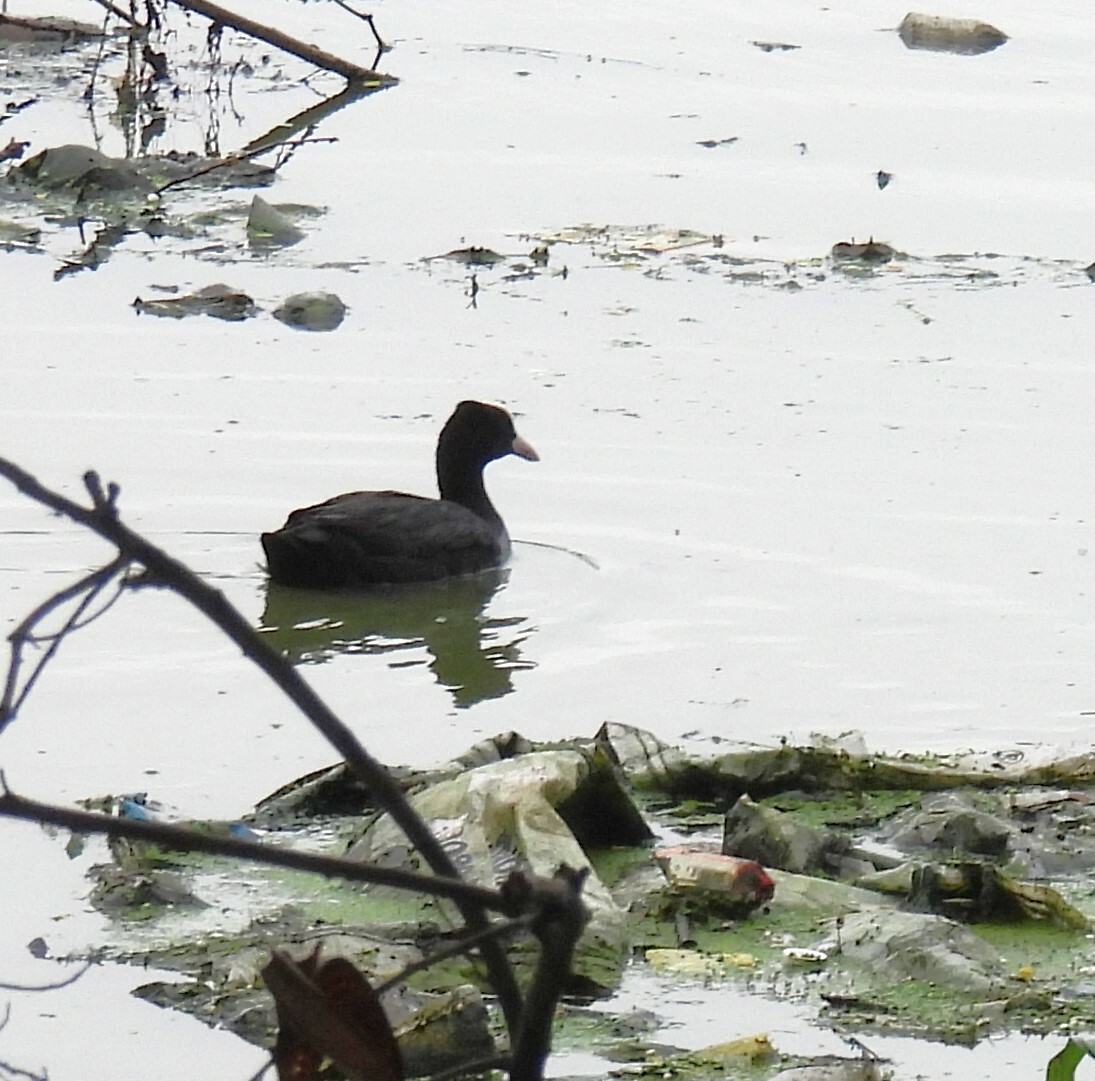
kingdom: Animalia
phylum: Chordata
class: Aves
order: Gruiformes
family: Rallidae
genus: Fulica
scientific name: Fulica atra
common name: Eurasian coot
